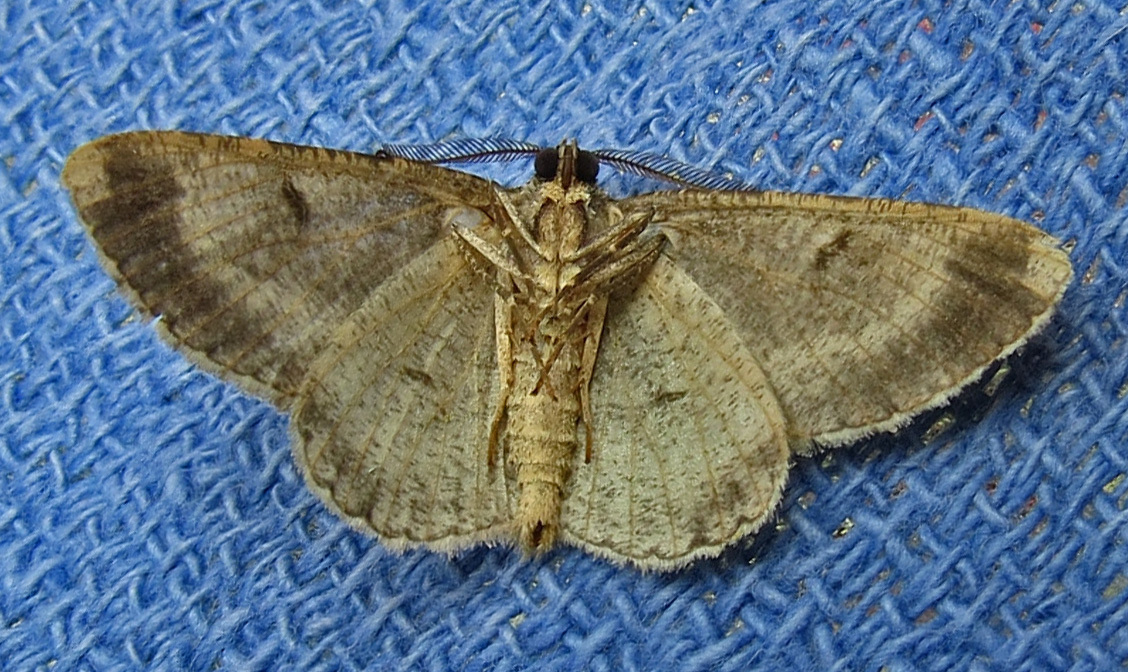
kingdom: Animalia
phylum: Arthropoda
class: Insecta
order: Lepidoptera
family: Geometridae
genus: Anavitrinella
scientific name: Anavitrinella pampinaria
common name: Common gray
